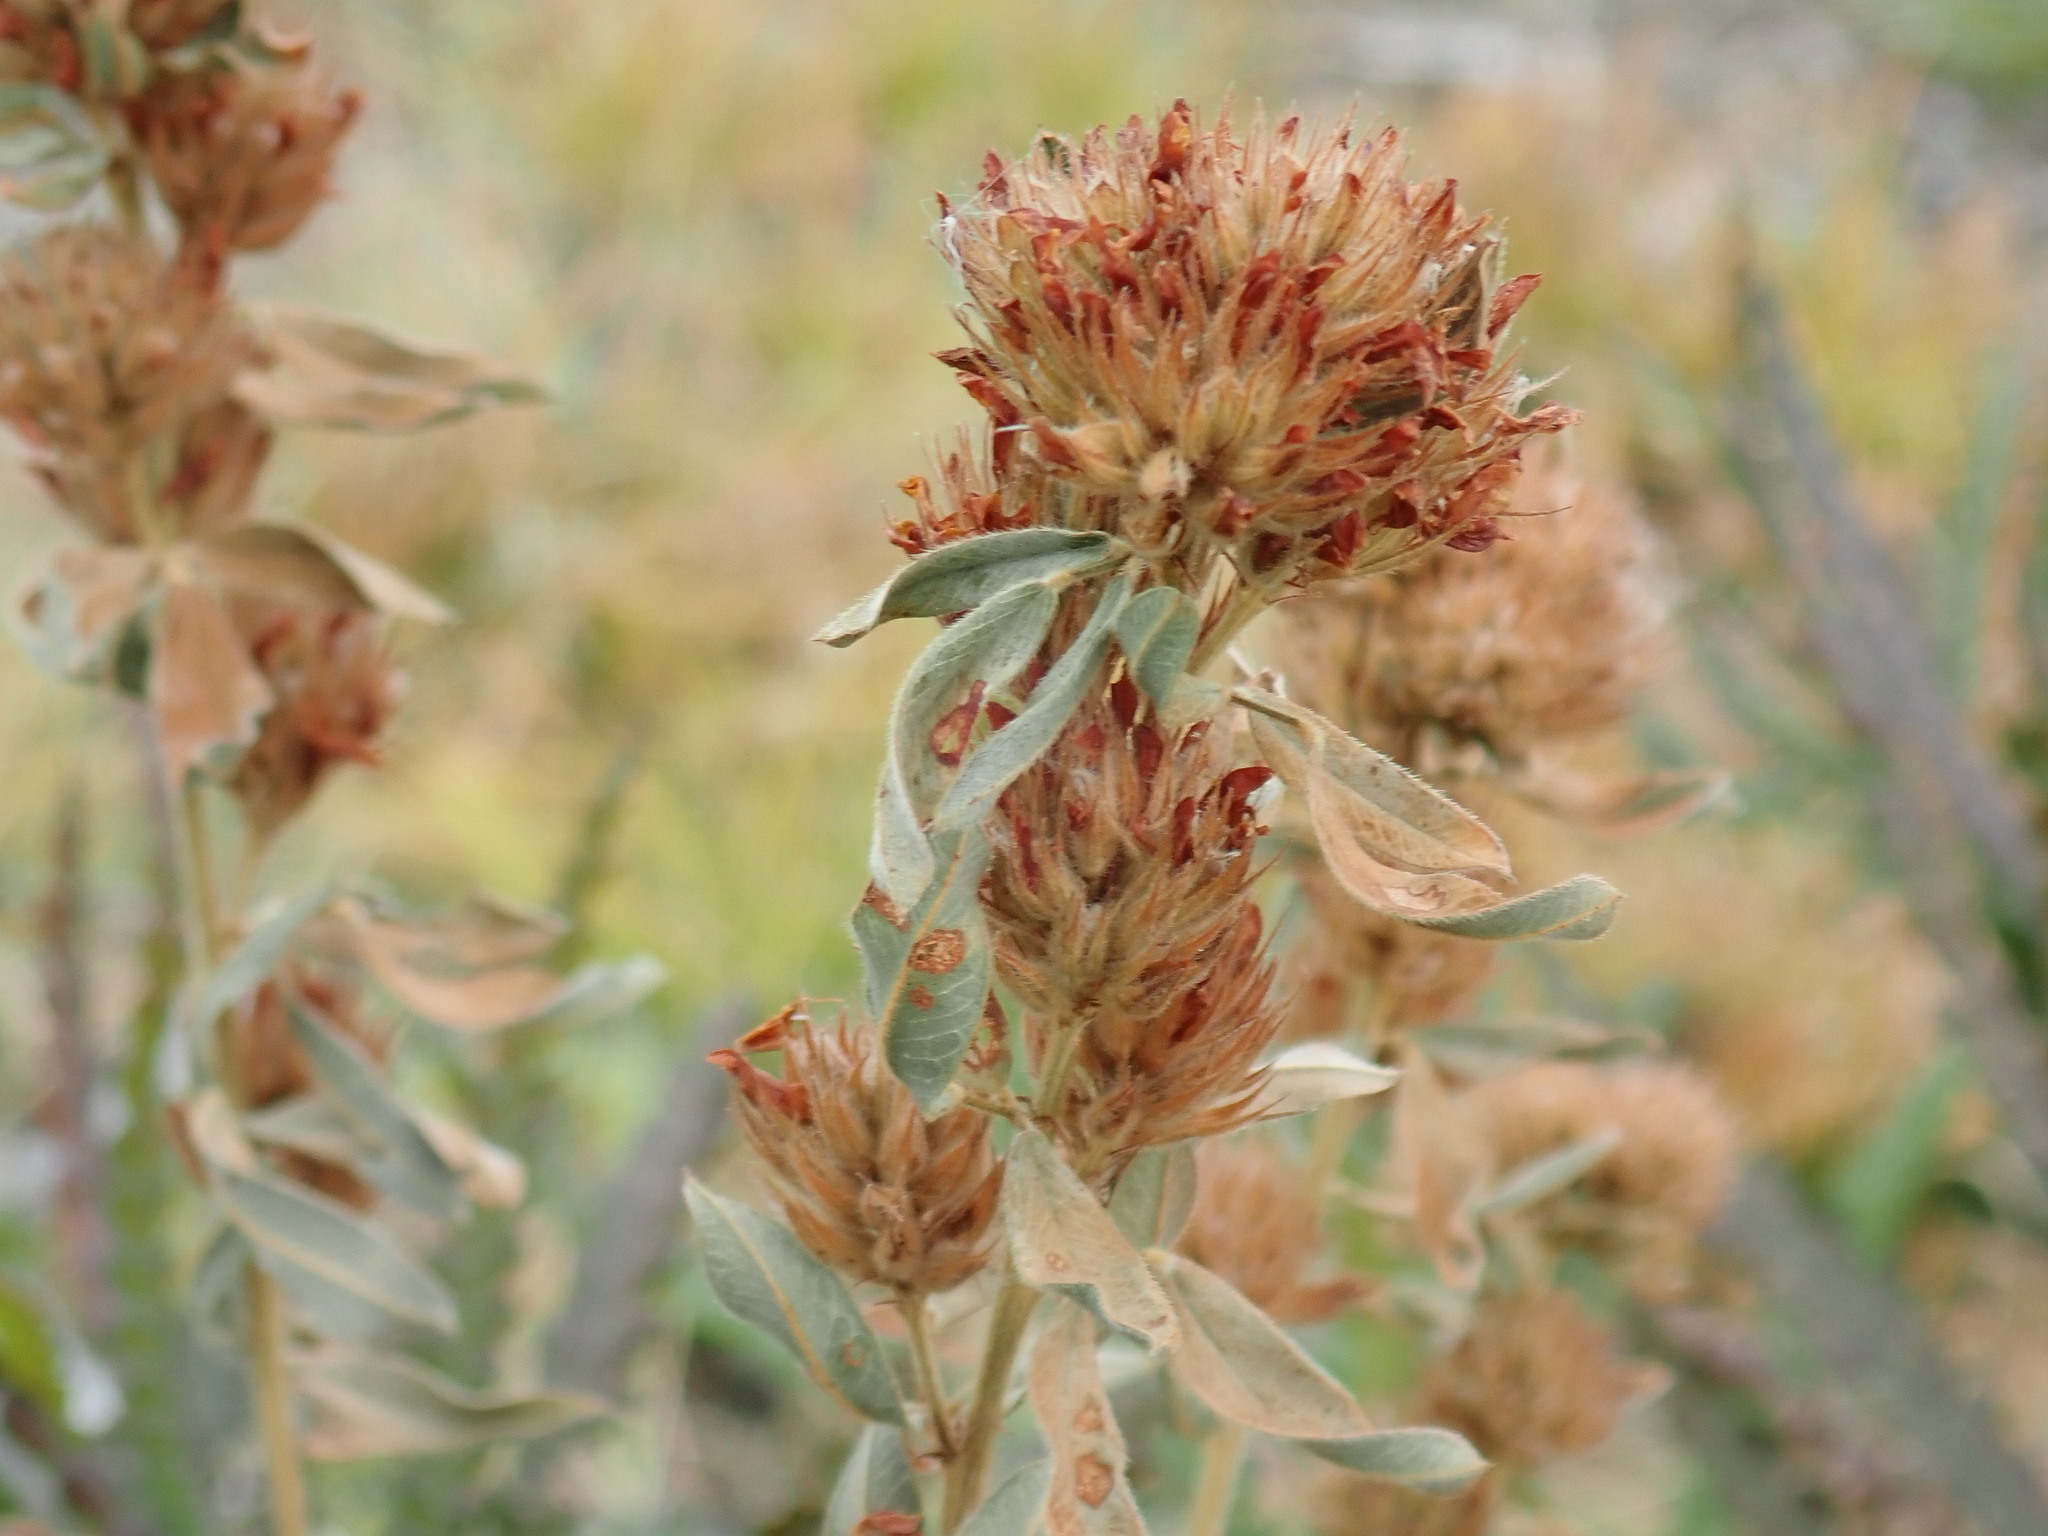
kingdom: Plantae
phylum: Tracheophyta
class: Magnoliopsida
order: Fabales
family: Fabaceae
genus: Lespedeza
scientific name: Lespedeza capitata
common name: Dusty clover
